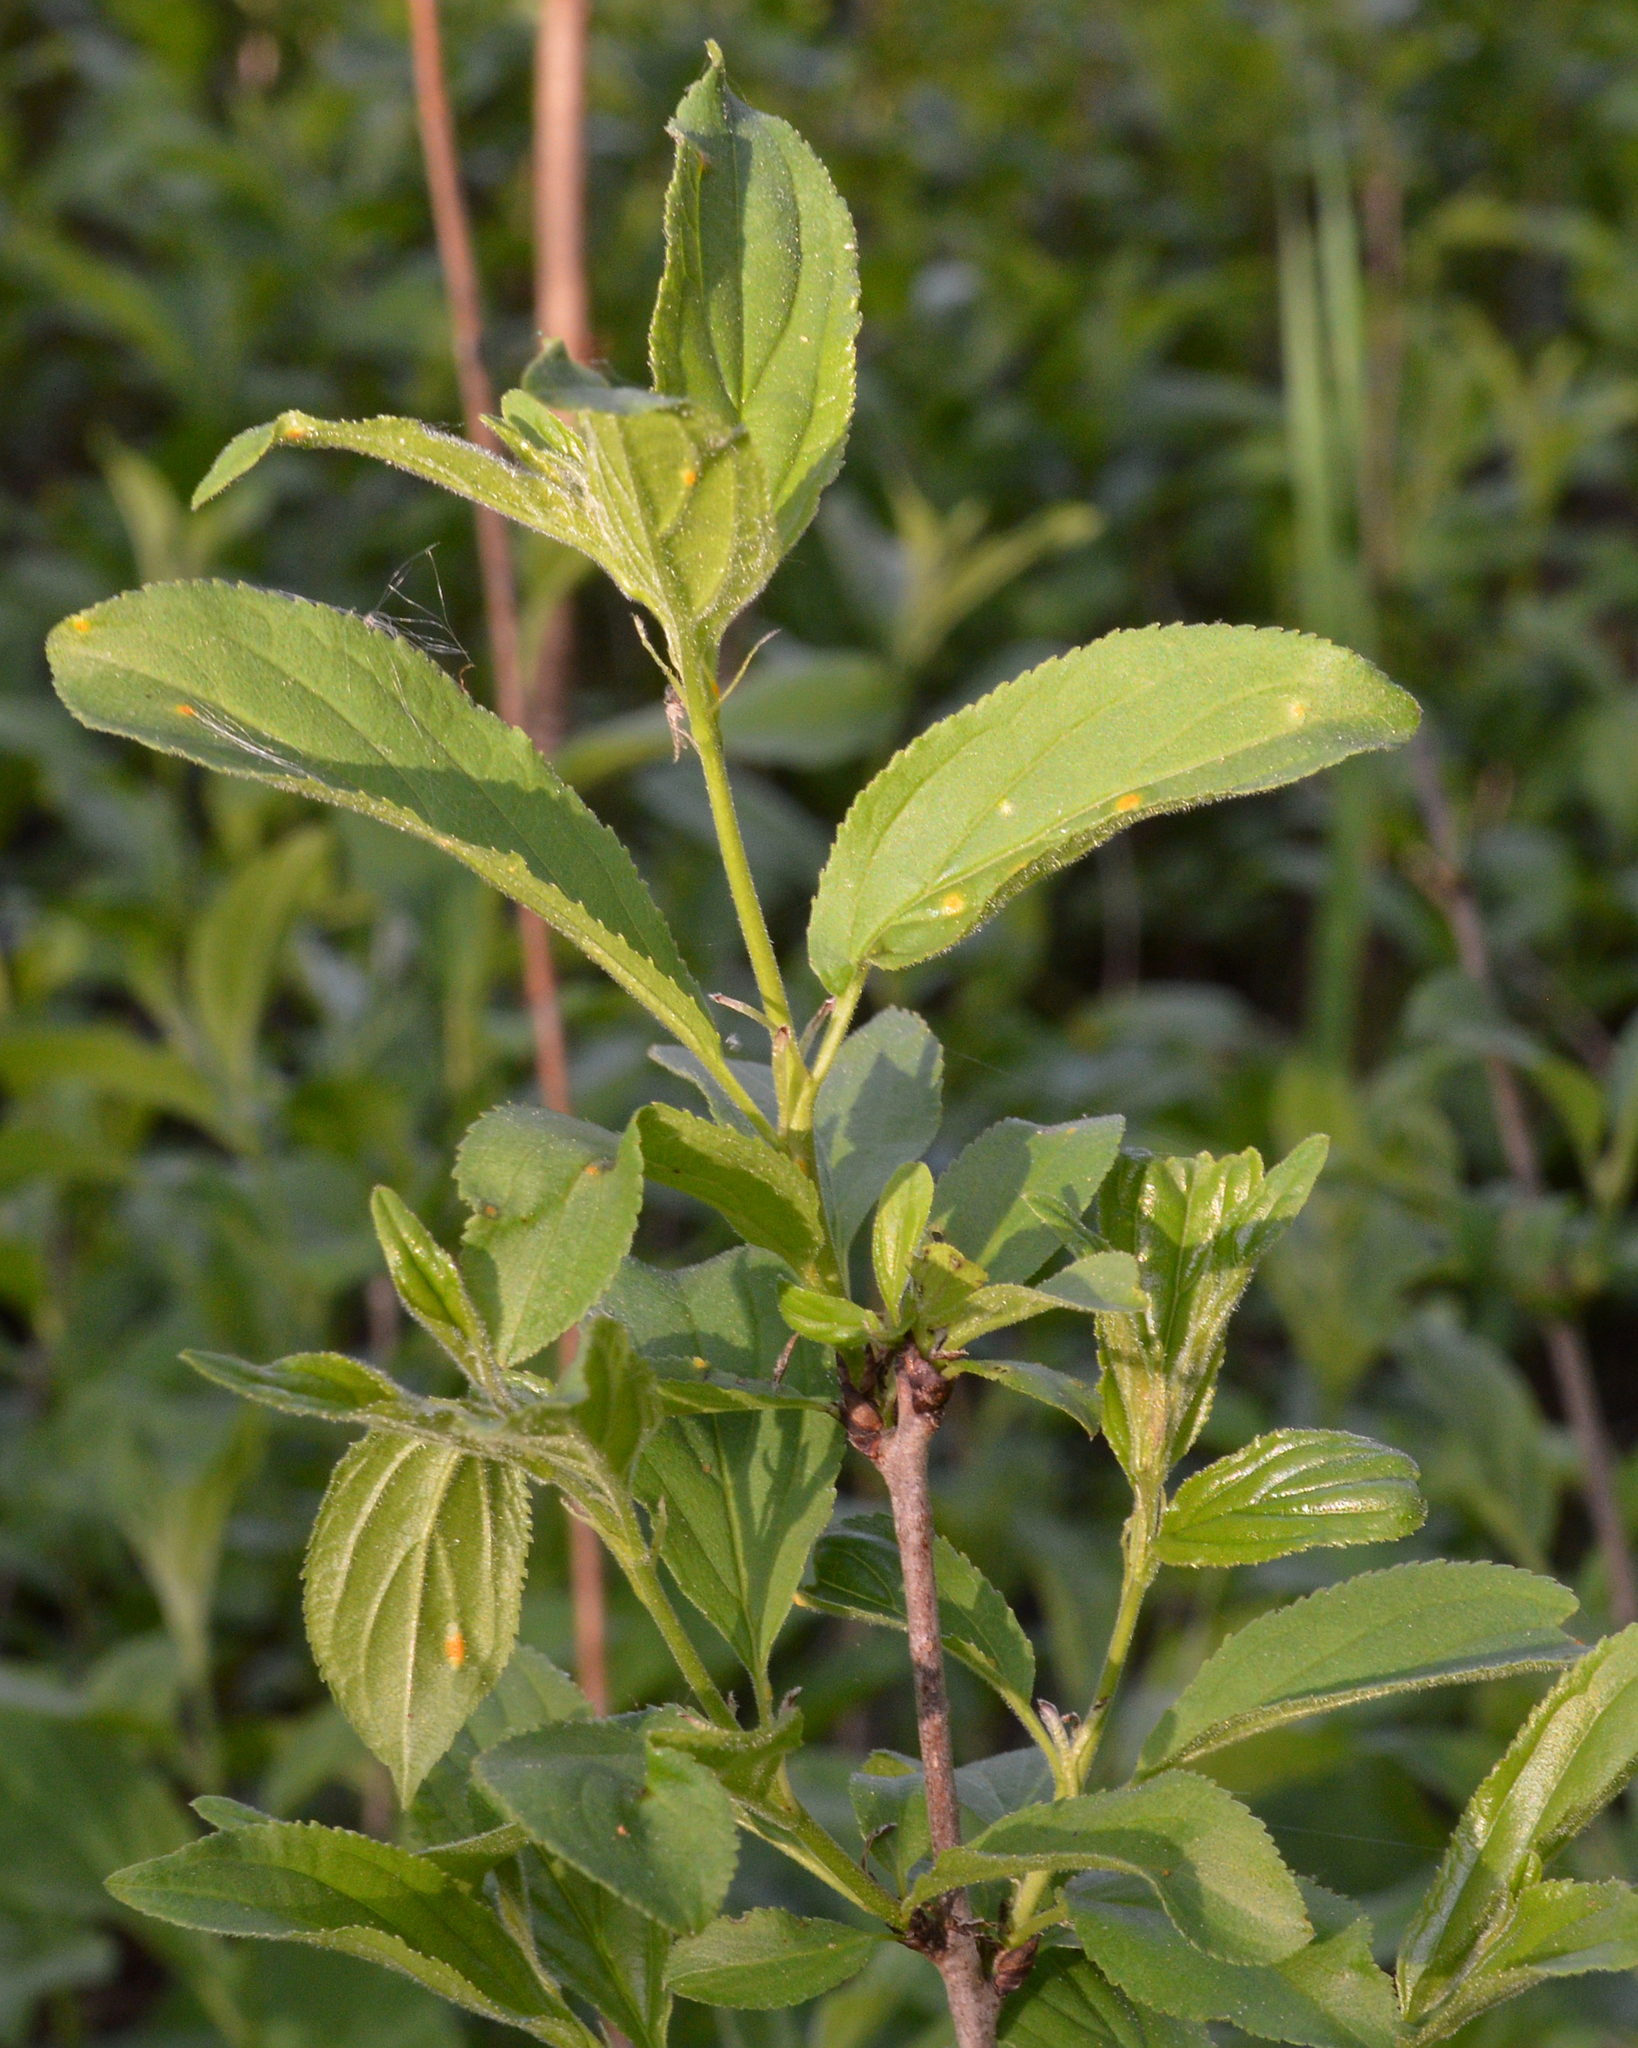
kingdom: Plantae
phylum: Tracheophyta
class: Magnoliopsida
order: Rosales
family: Rhamnaceae
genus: Rhamnus
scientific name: Rhamnus cathartica
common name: Common buckthorn
